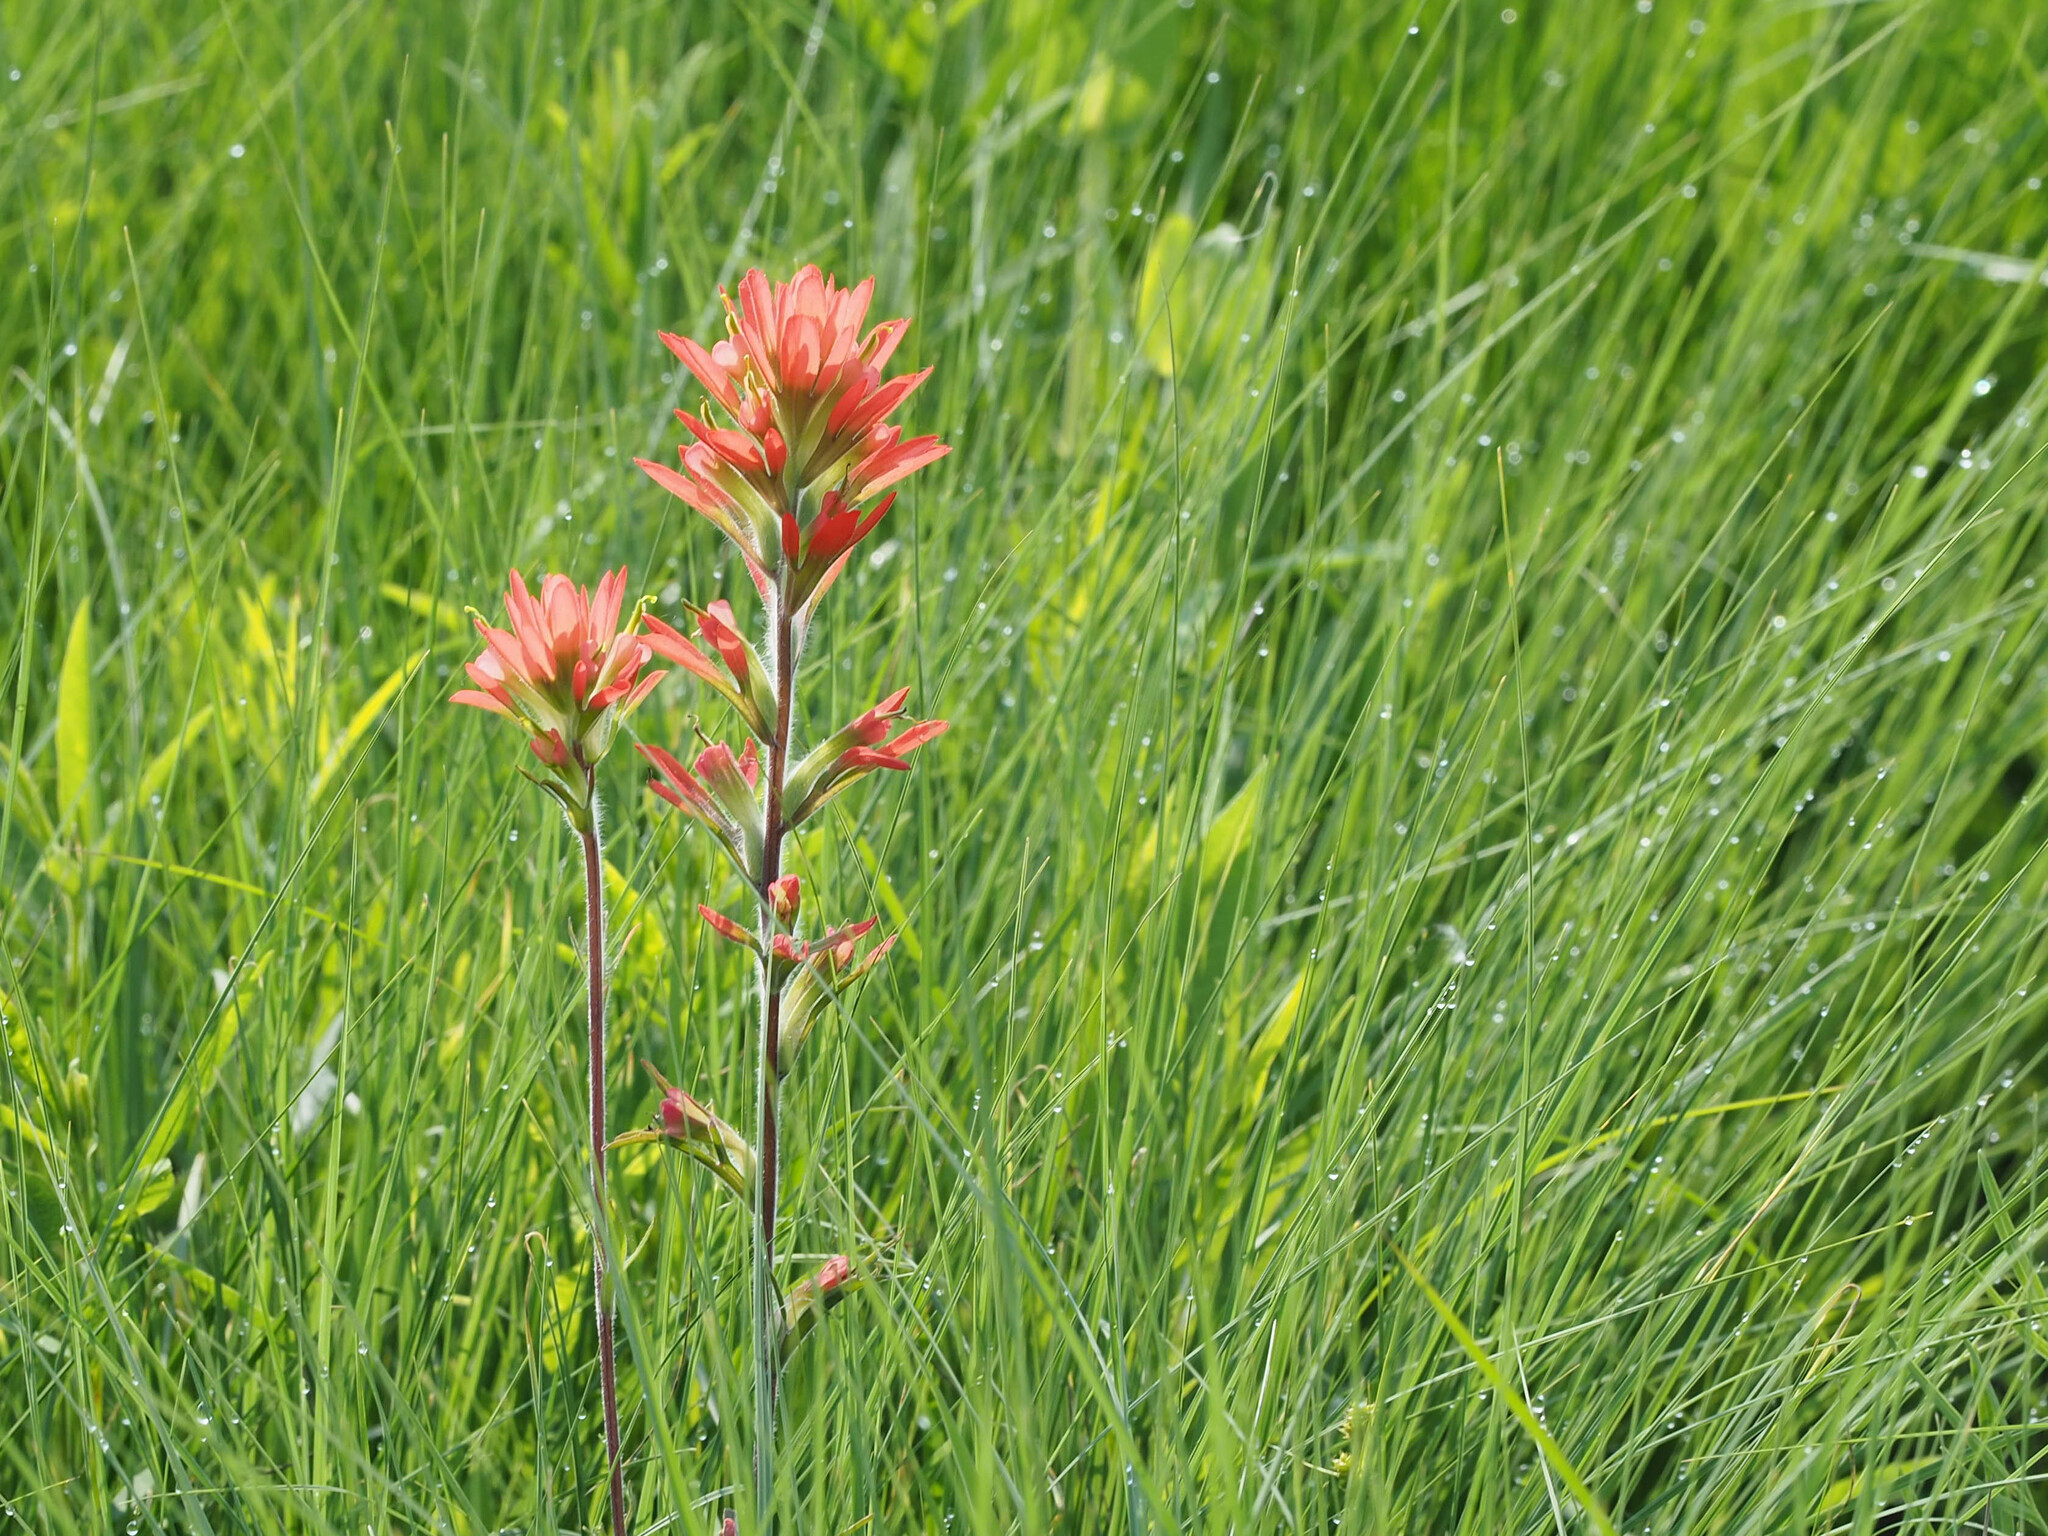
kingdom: Plantae
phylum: Tracheophyta
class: Magnoliopsida
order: Lamiales
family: Orobanchaceae
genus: Castilleja
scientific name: Castilleja coccinea
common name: Scarlet paintbrush
